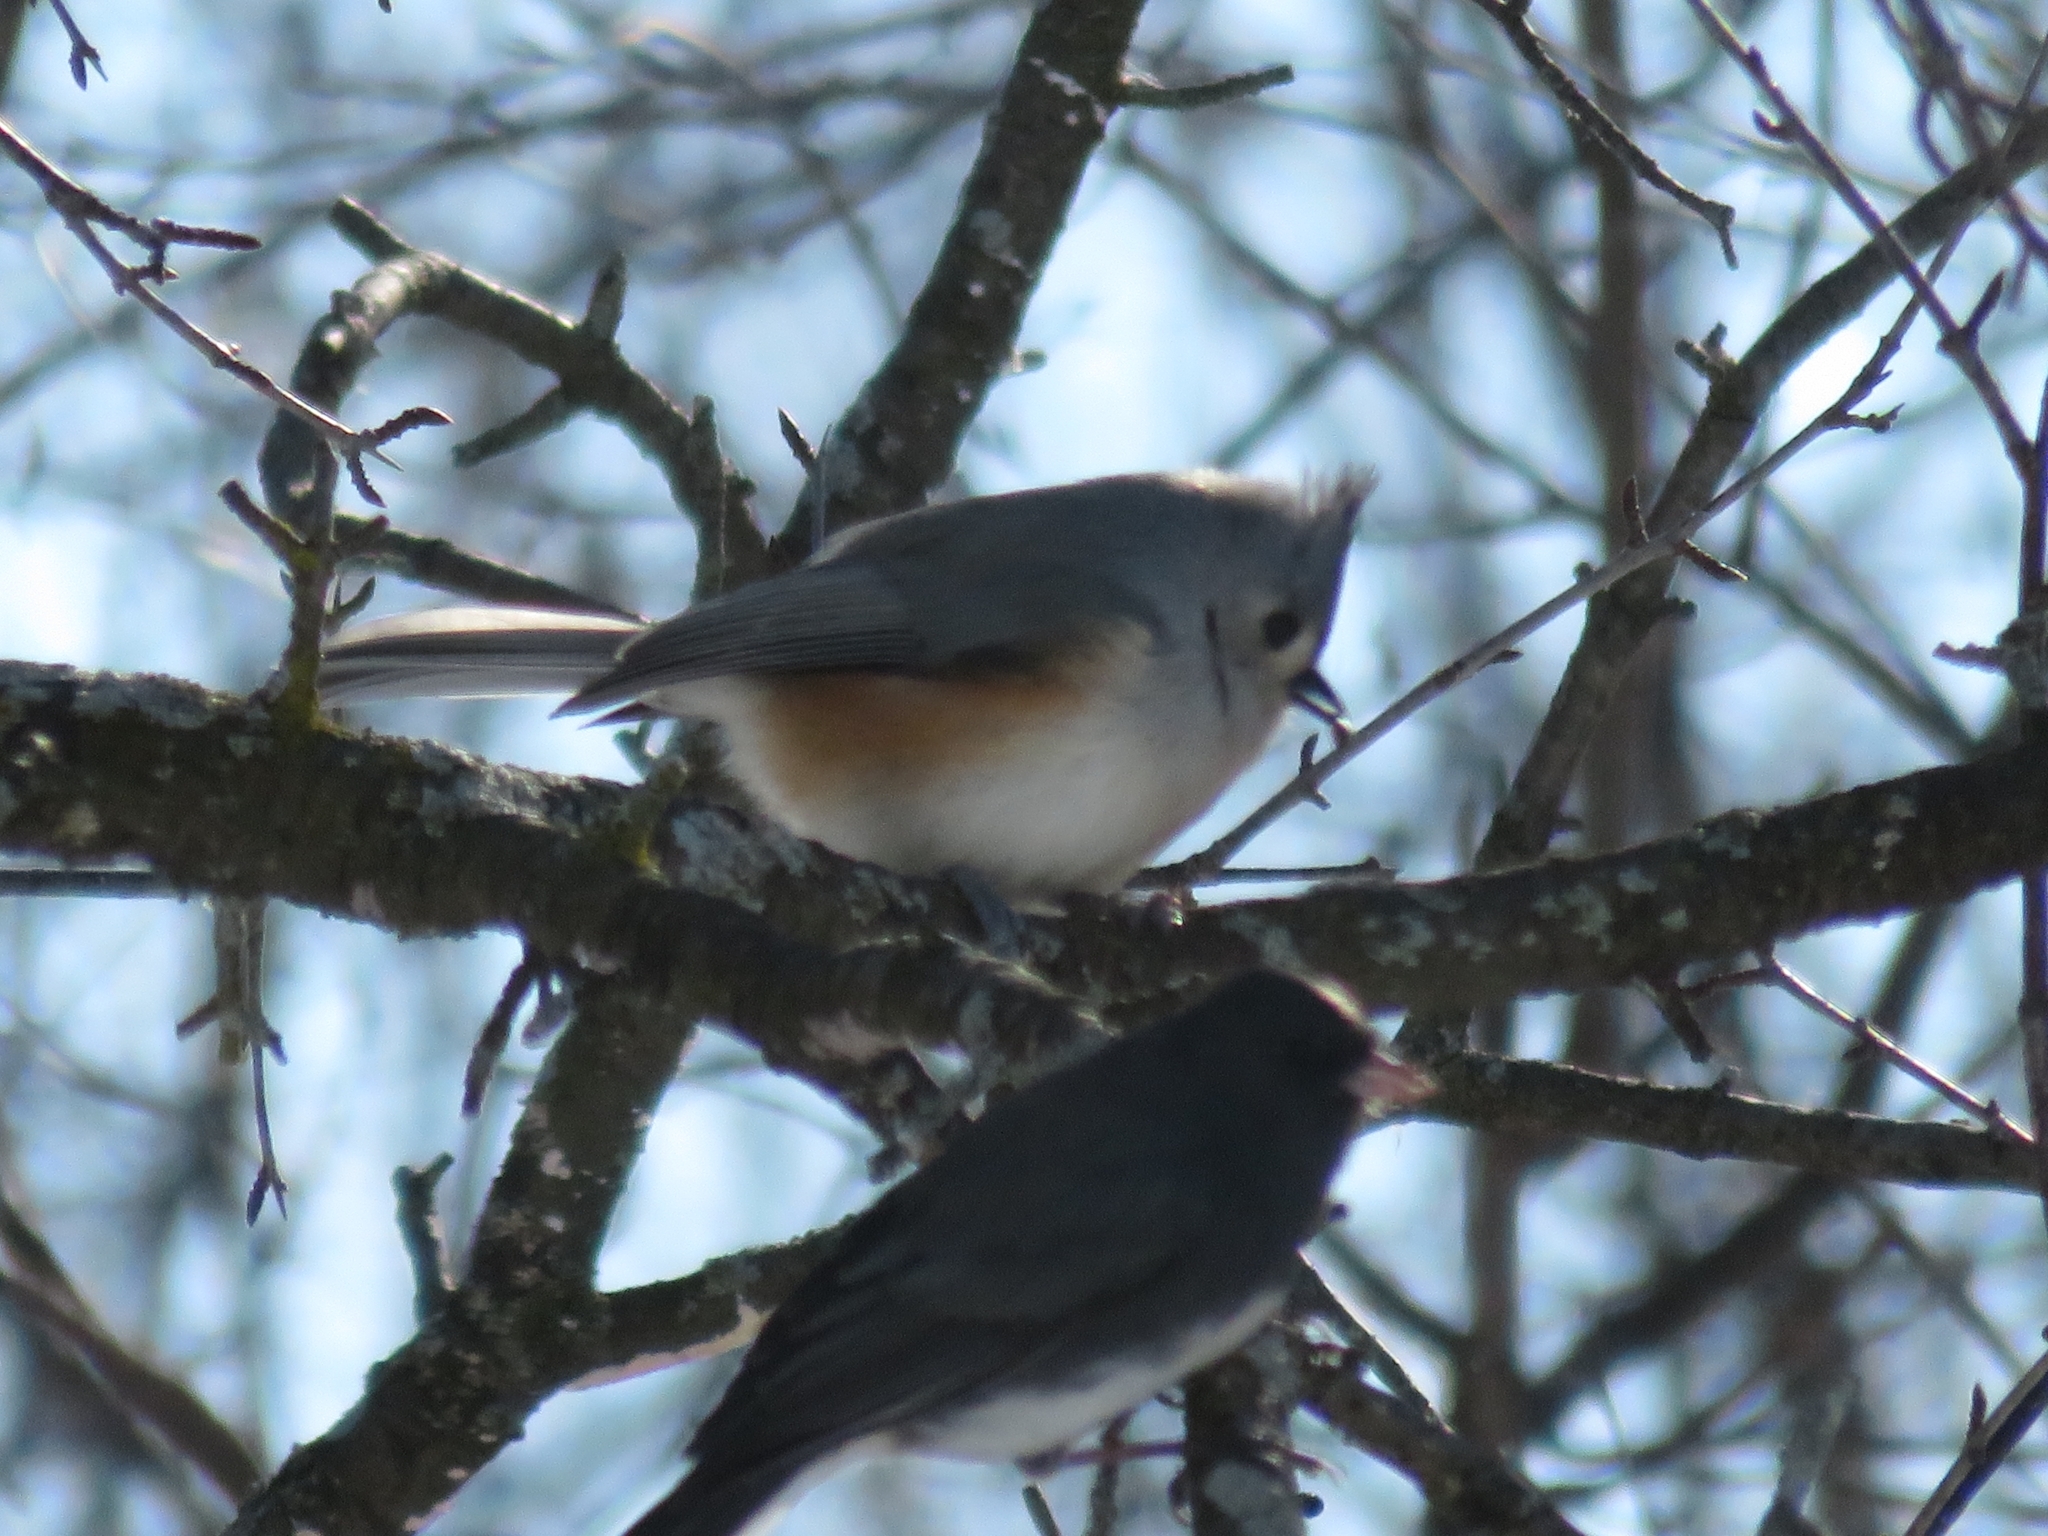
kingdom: Animalia
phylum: Chordata
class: Aves
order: Passeriformes
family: Paridae
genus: Baeolophus
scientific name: Baeolophus bicolor
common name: Tufted titmouse
